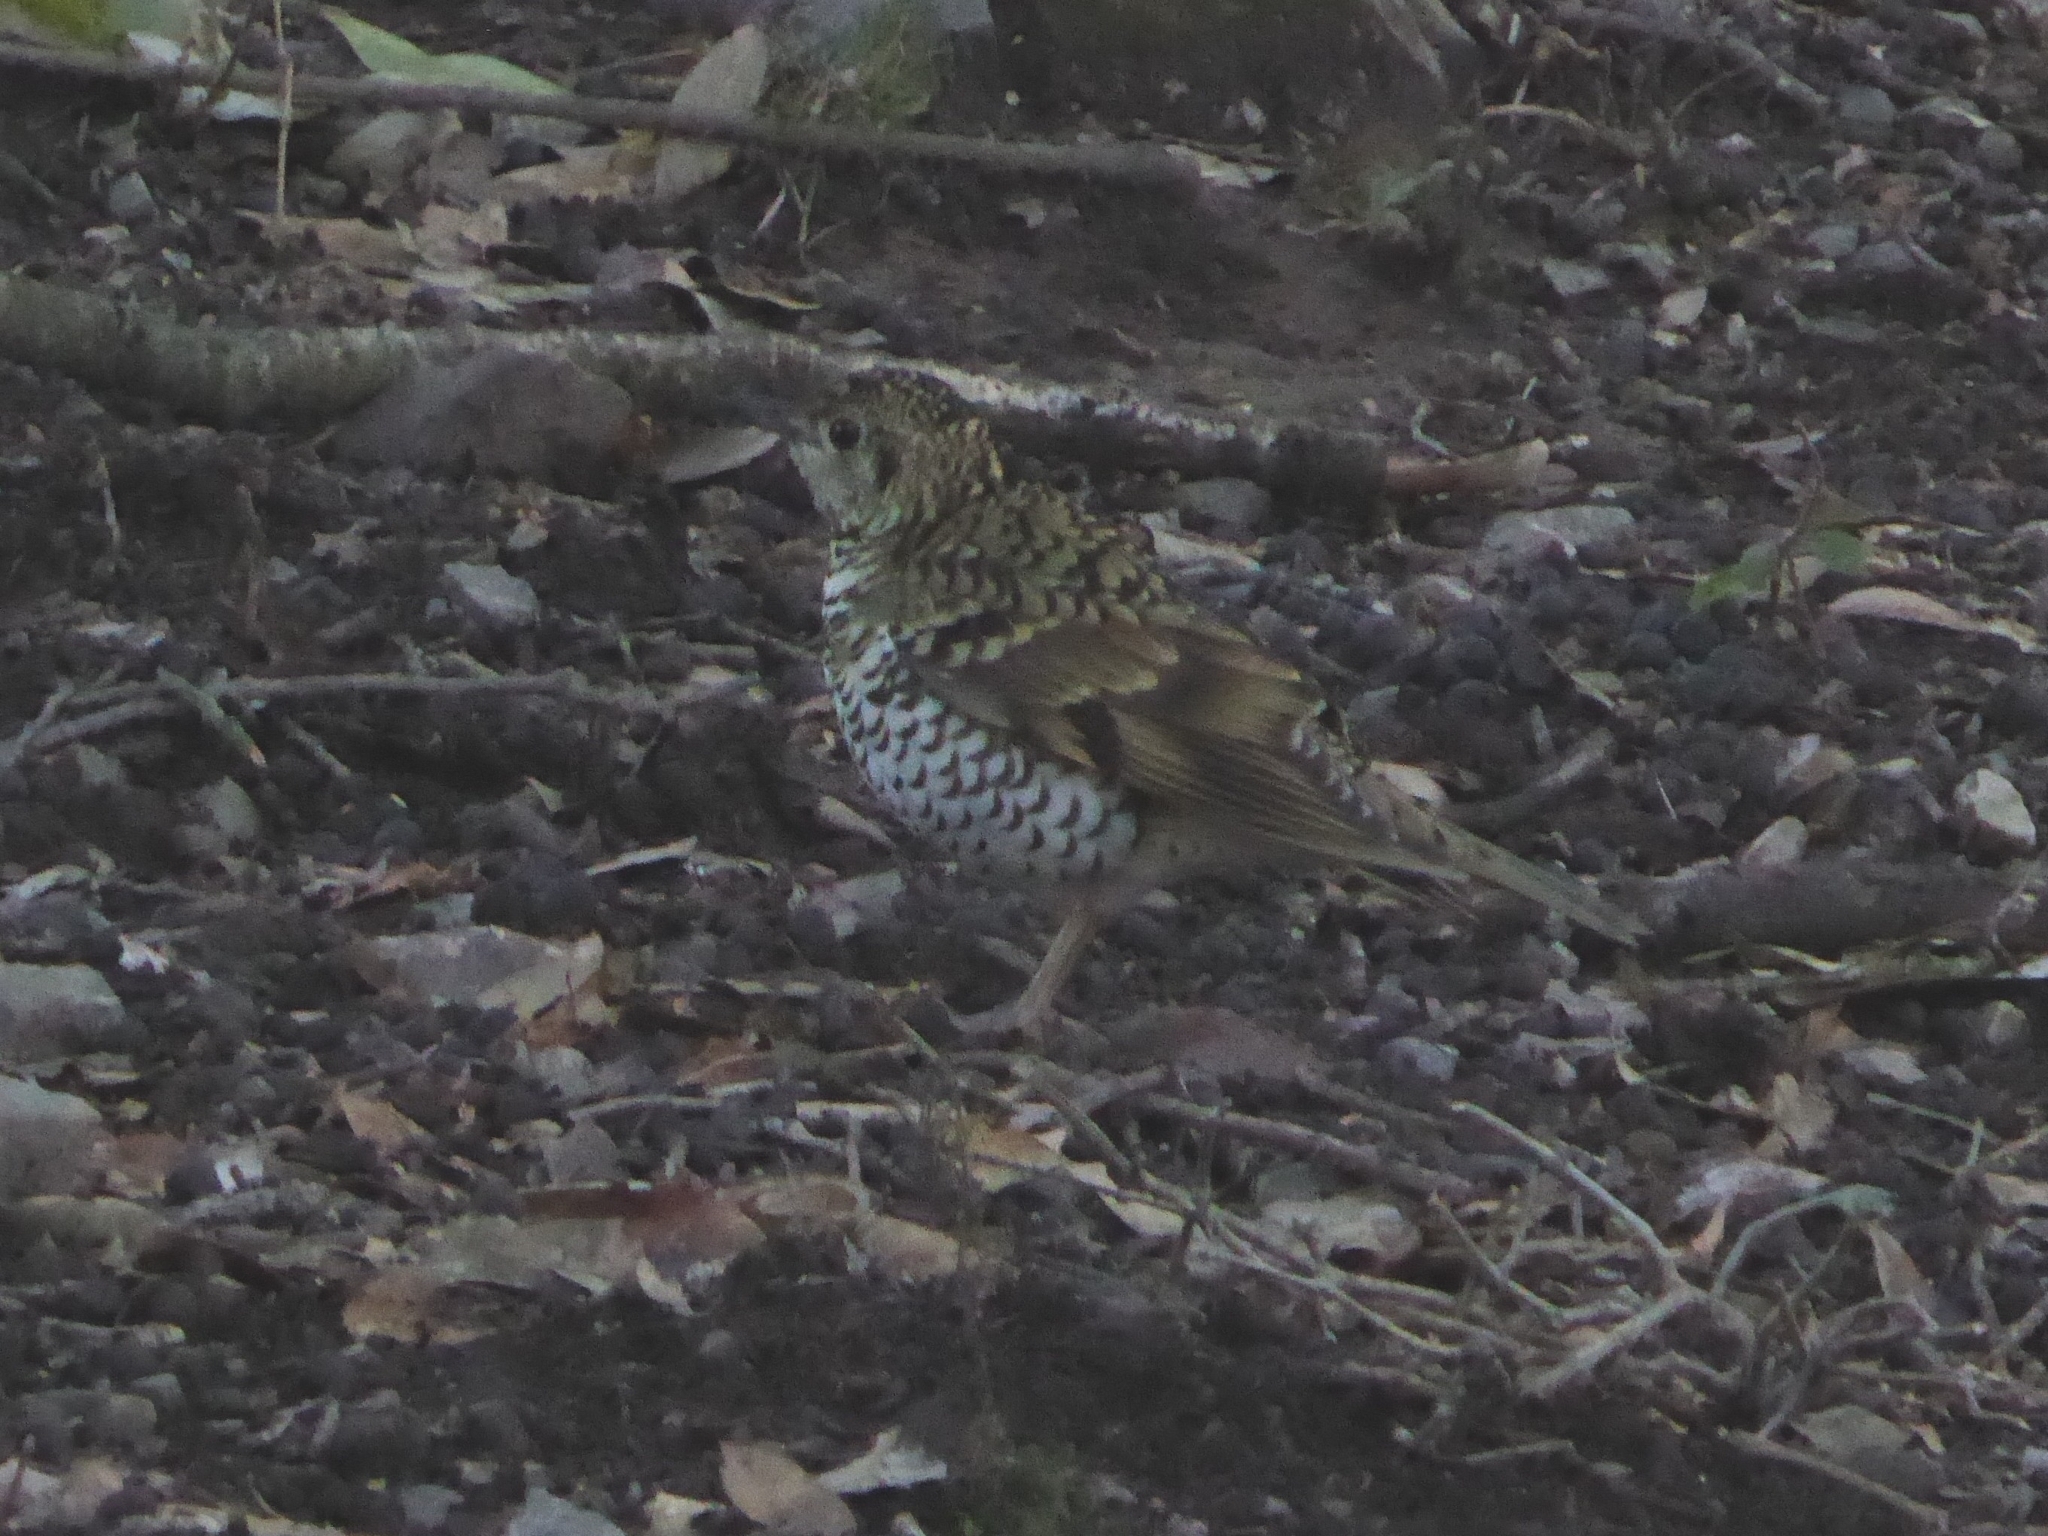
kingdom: Animalia
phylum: Chordata
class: Aves
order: Passeriformes
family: Turdidae
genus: Zoothera
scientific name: Zoothera dauma
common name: Scaly thrush
